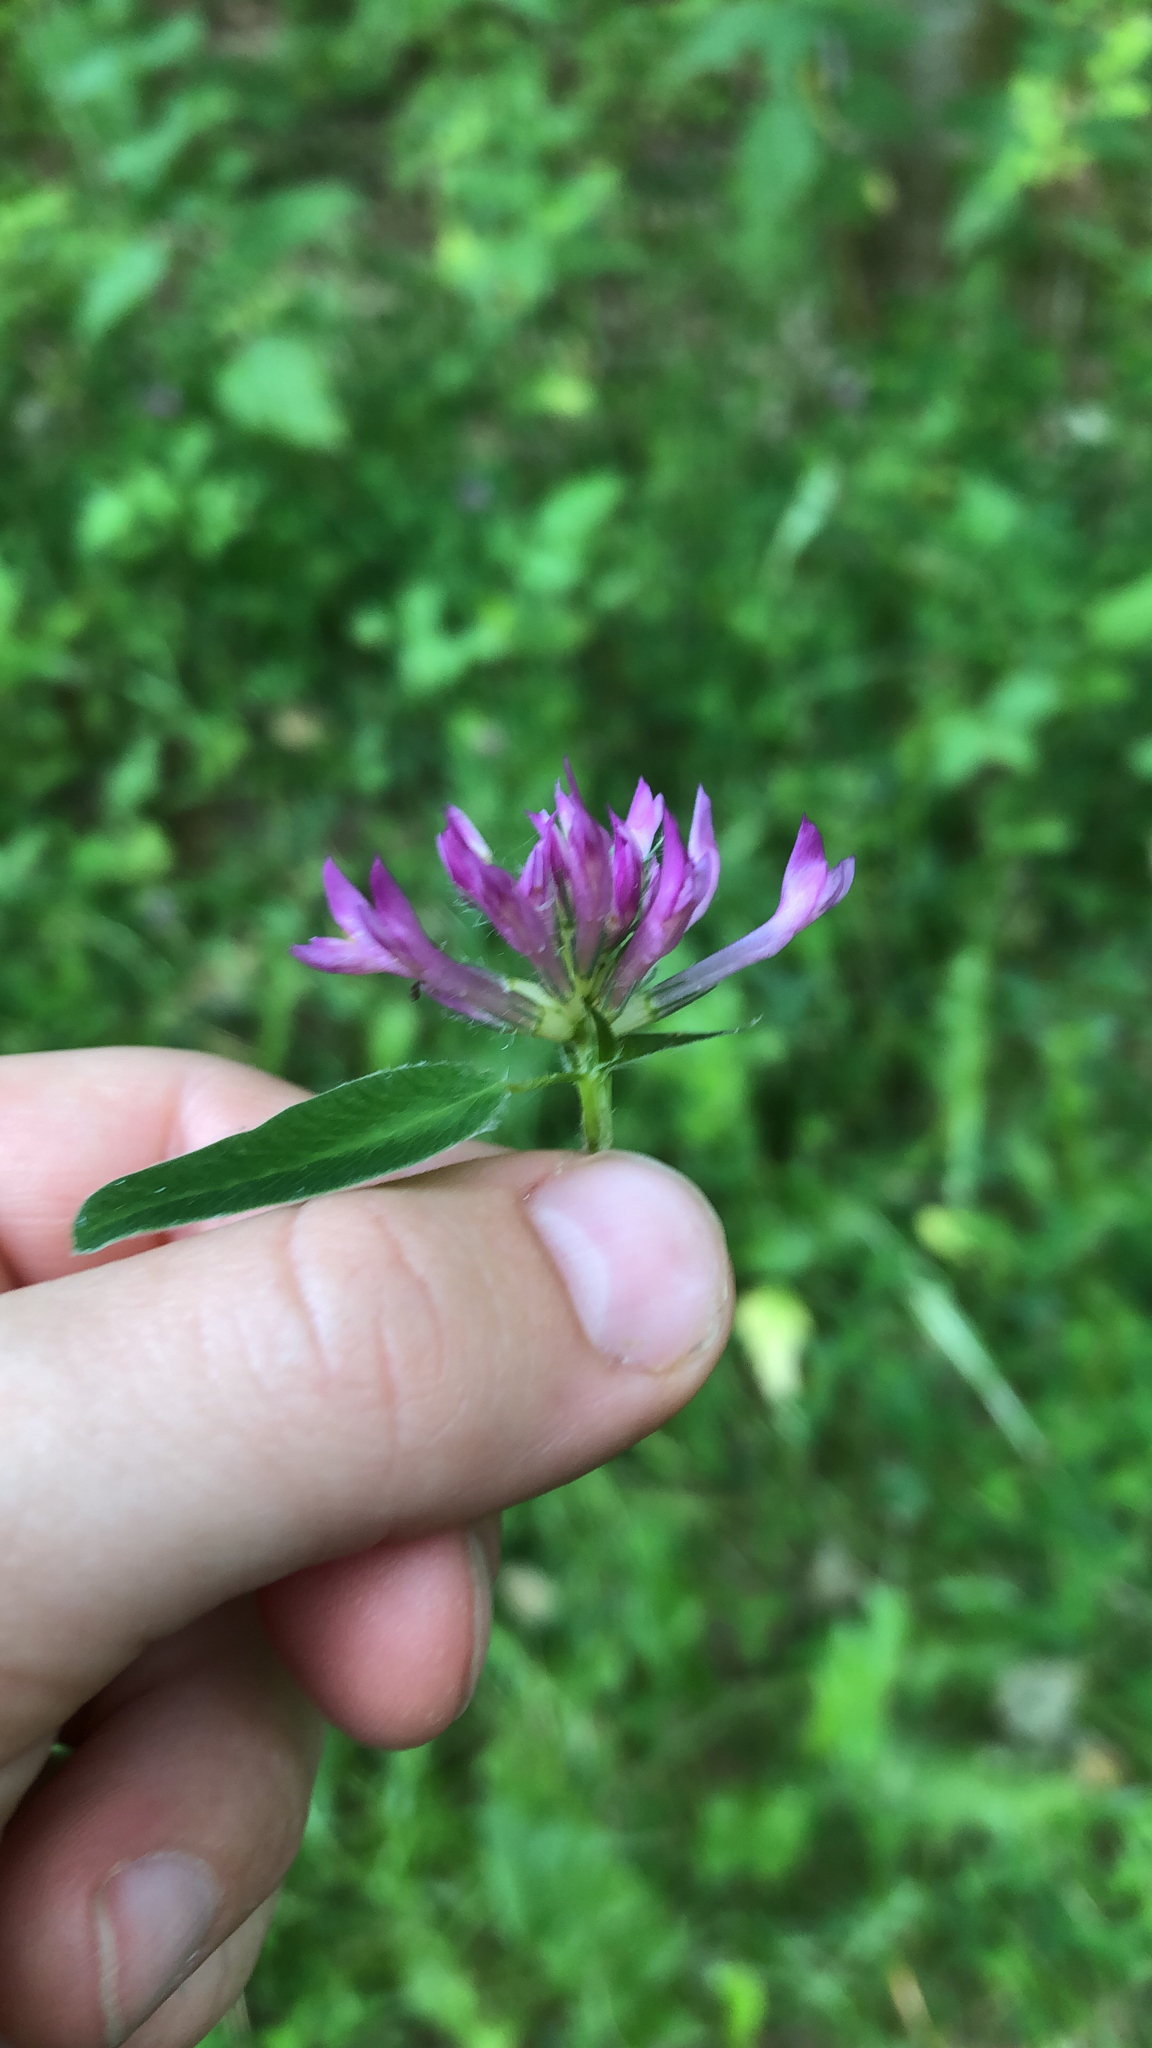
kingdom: Plantae
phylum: Tracheophyta
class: Magnoliopsida
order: Fabales
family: Fabaceae
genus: Trifolium
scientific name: Trifolium medium
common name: Zigzag clover
